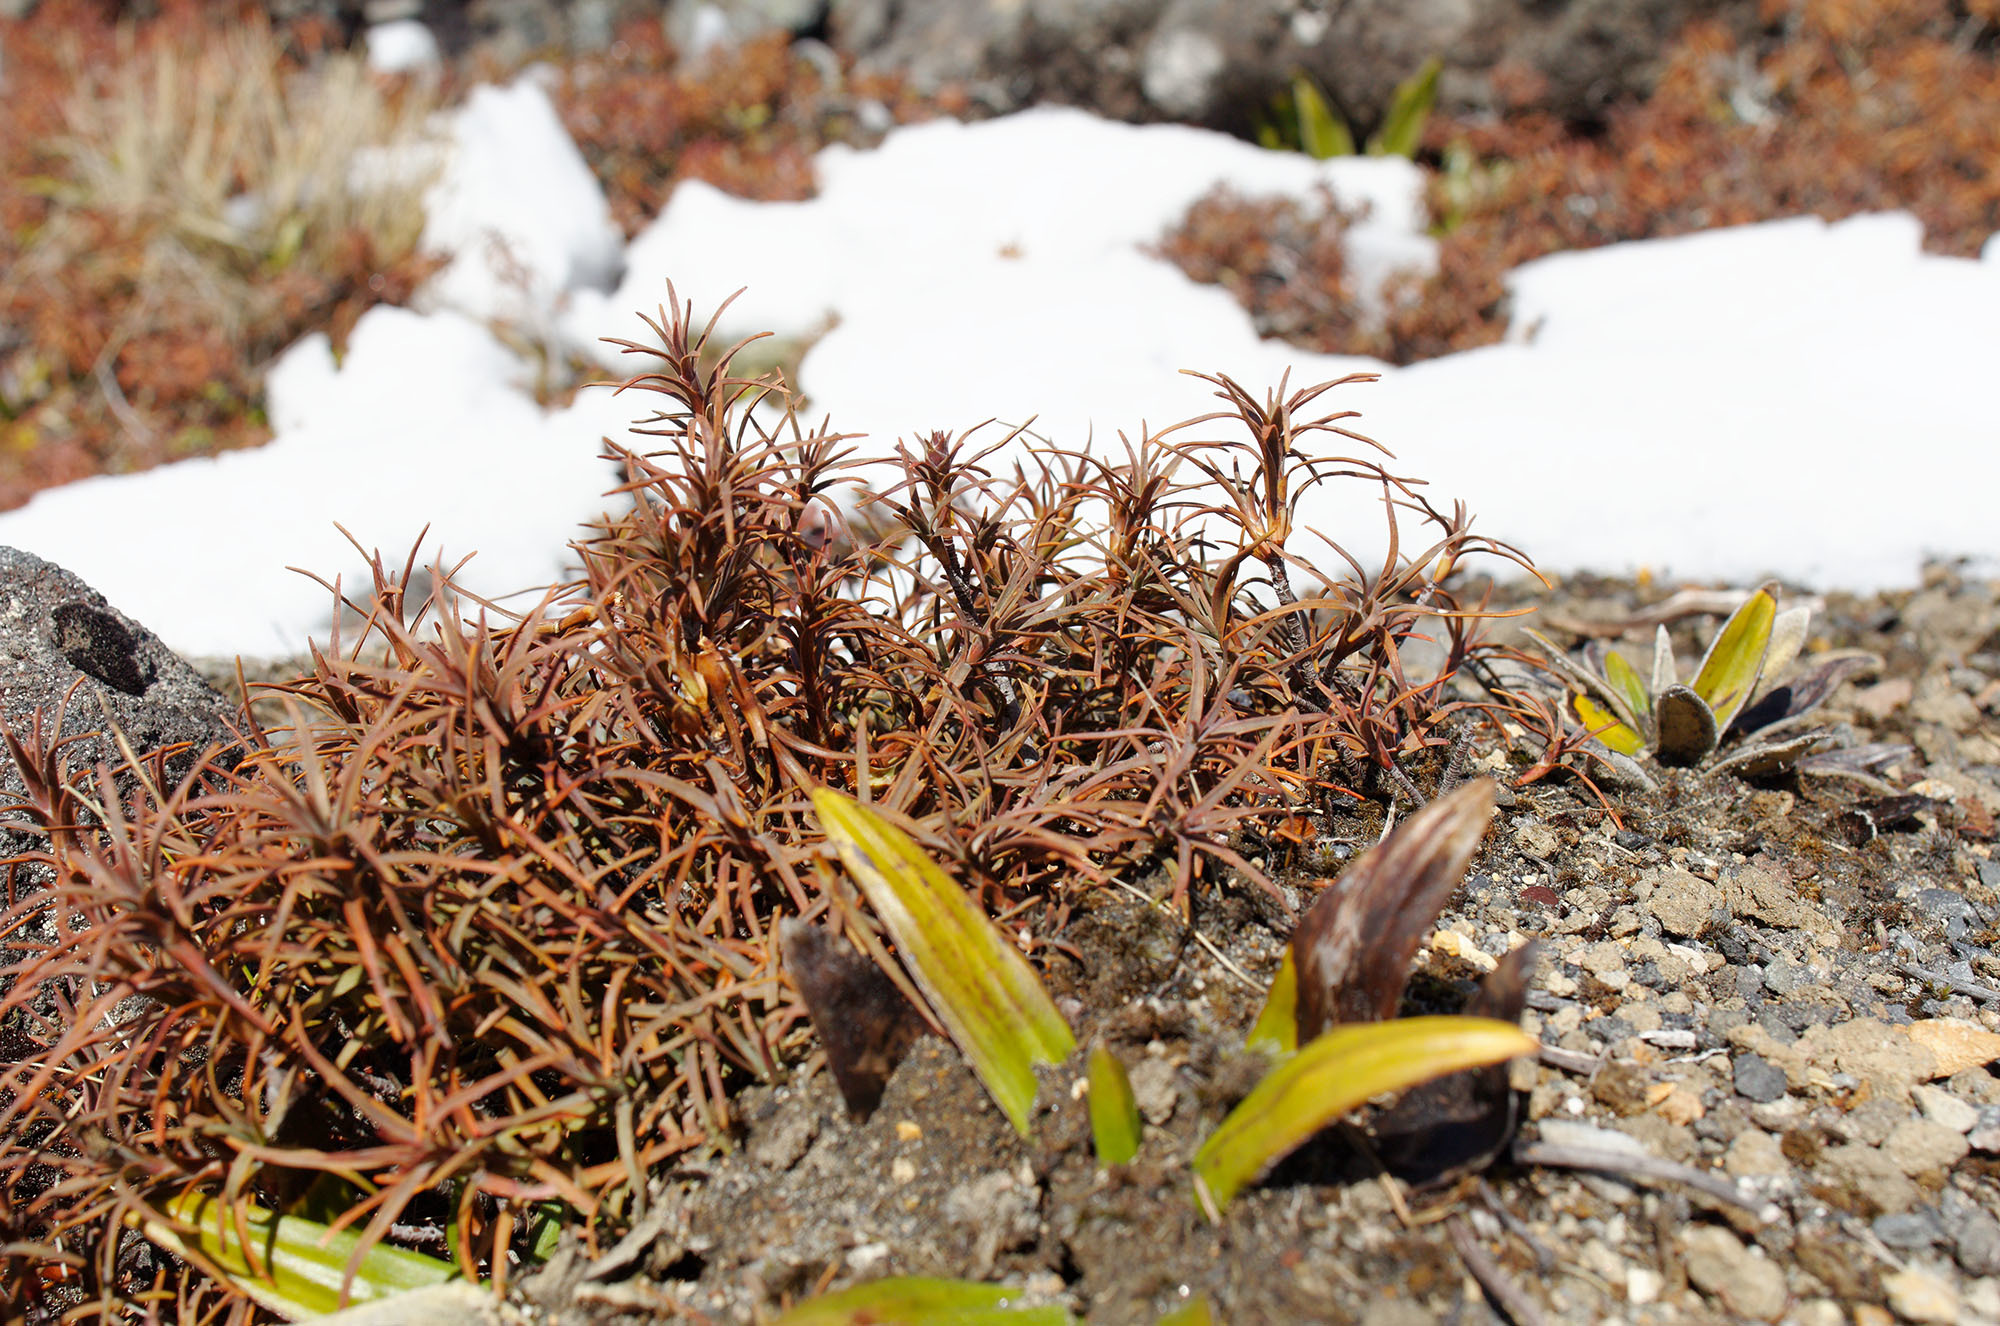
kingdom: Plantae
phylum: Tracheophyta
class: Magnoliopsida
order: Ericales
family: Ericaceae
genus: Dracophyllum
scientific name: Dracophyllum recurvum
